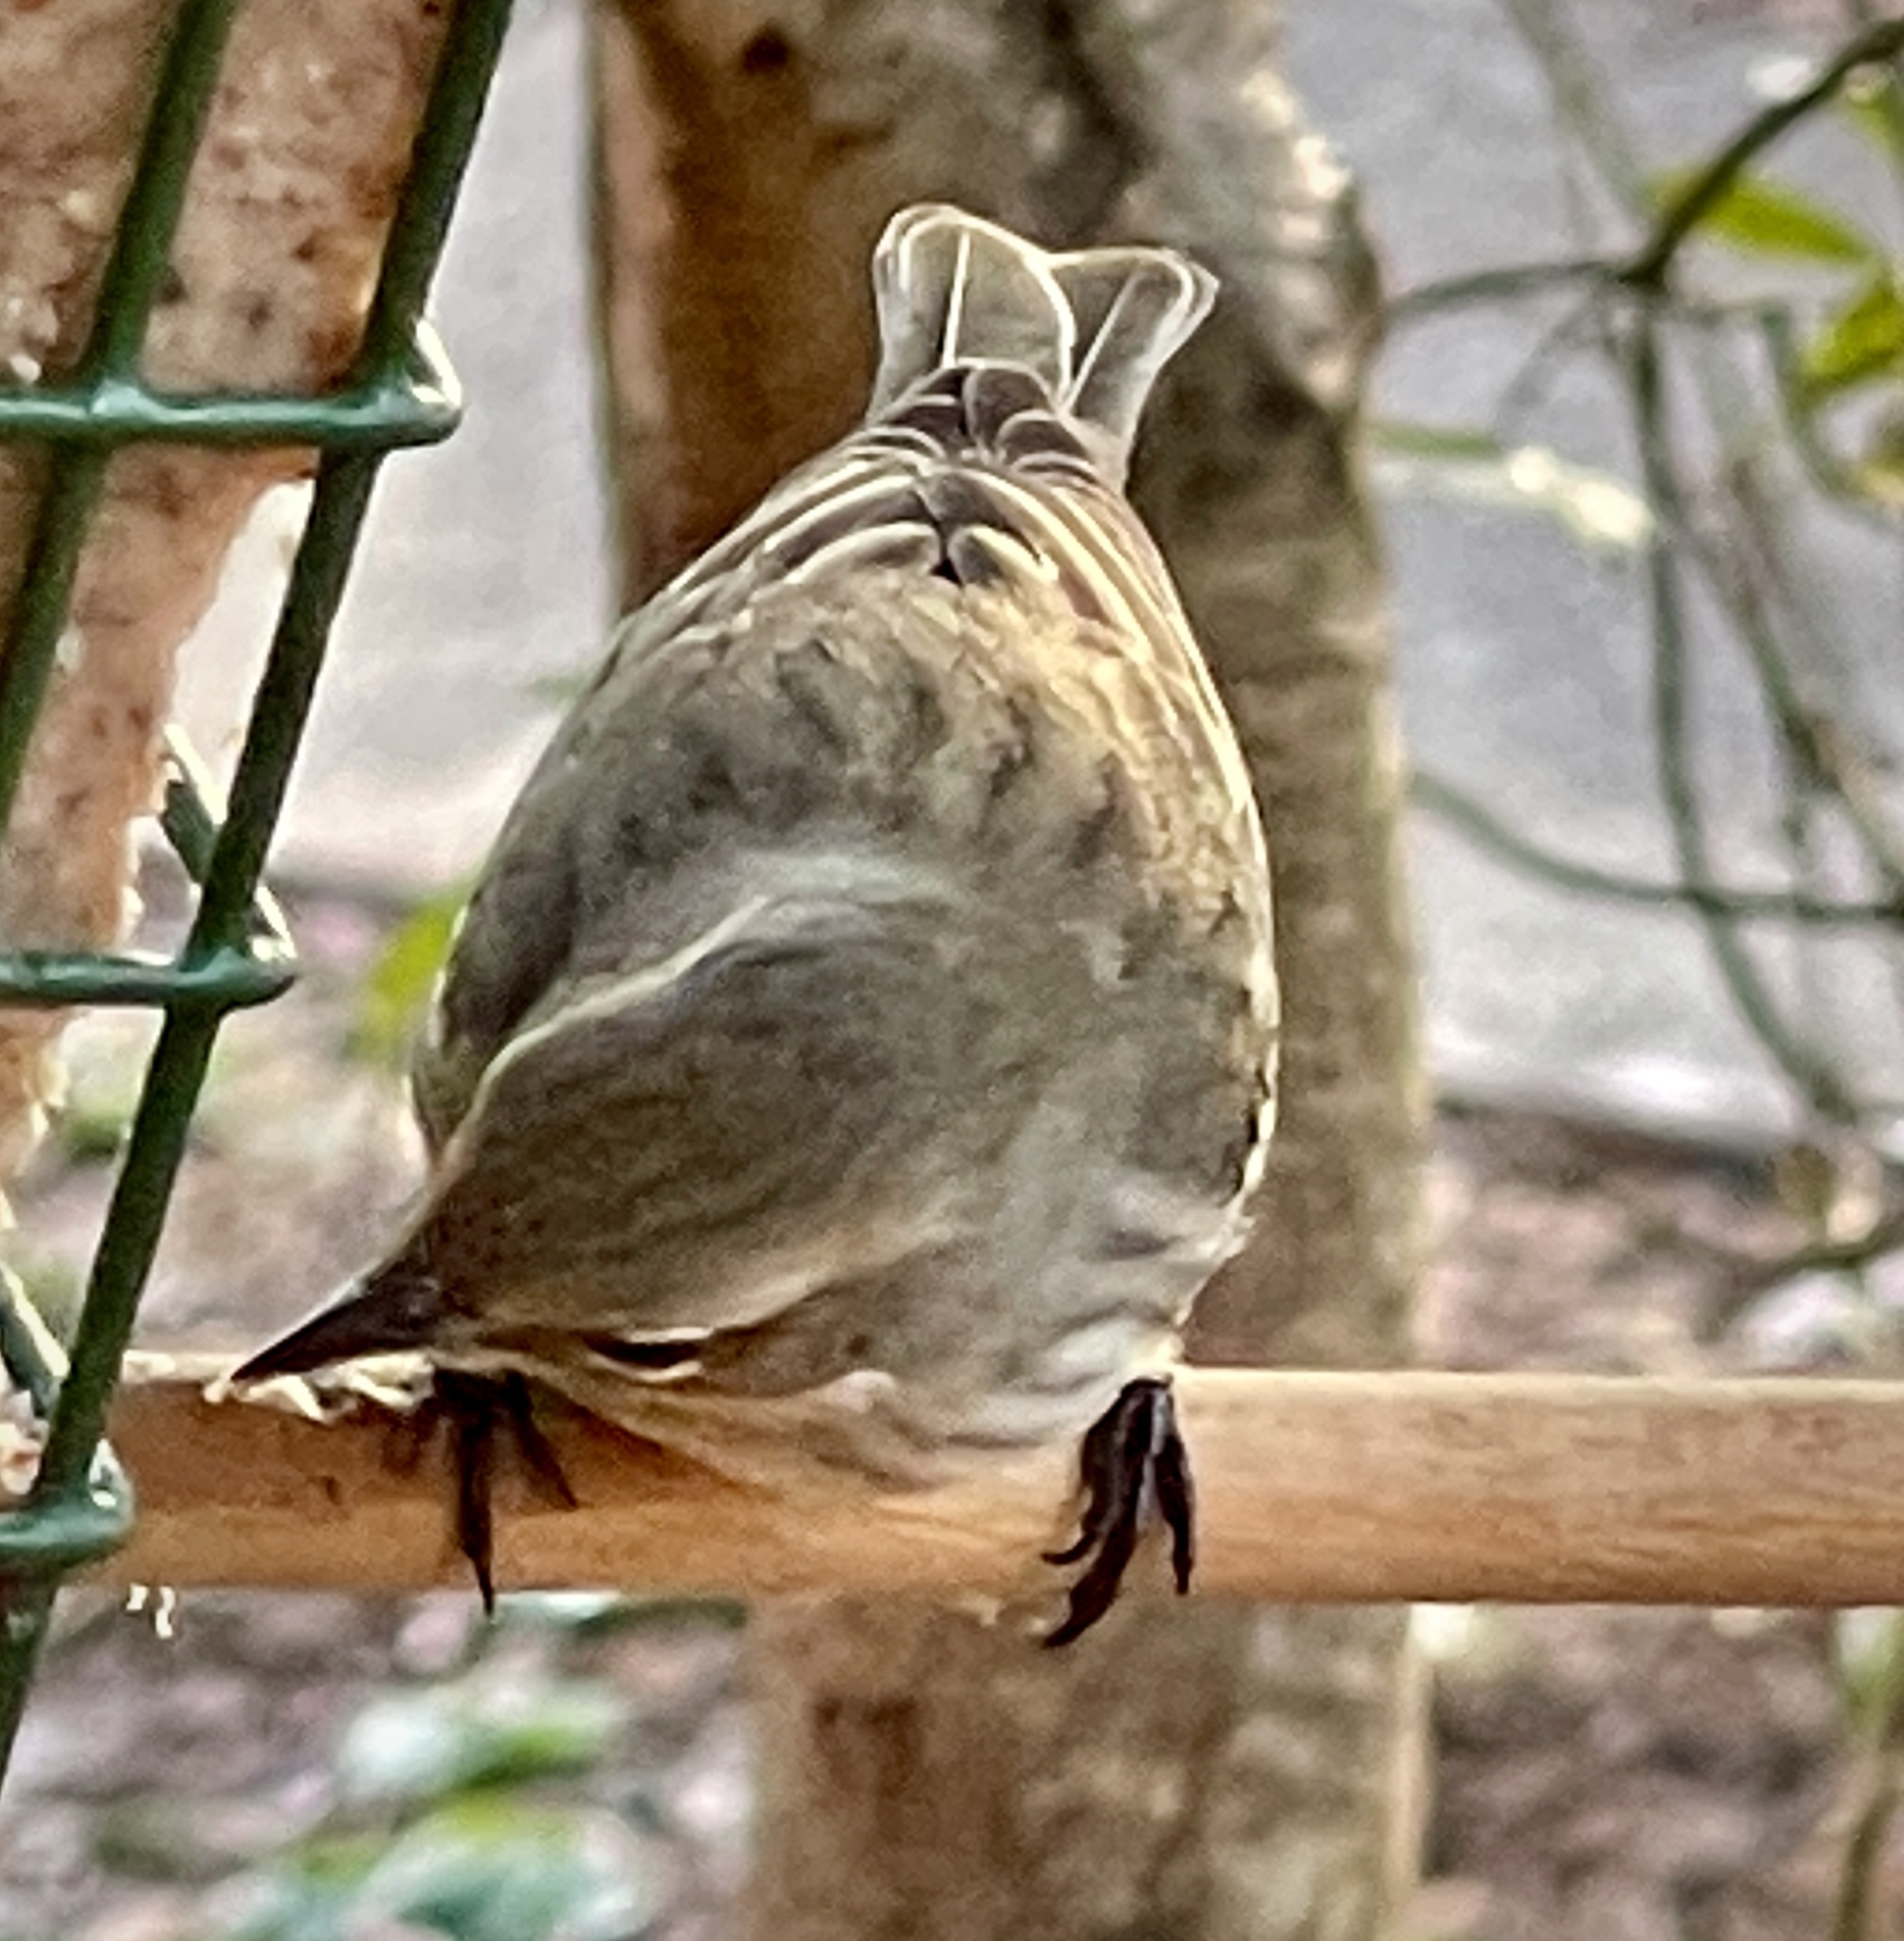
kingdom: Animalia
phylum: Chordata
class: Aves
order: Passeriformes
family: Parulidae
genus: Setophaga
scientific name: Setophaga coronata
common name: Myrtle warbler
